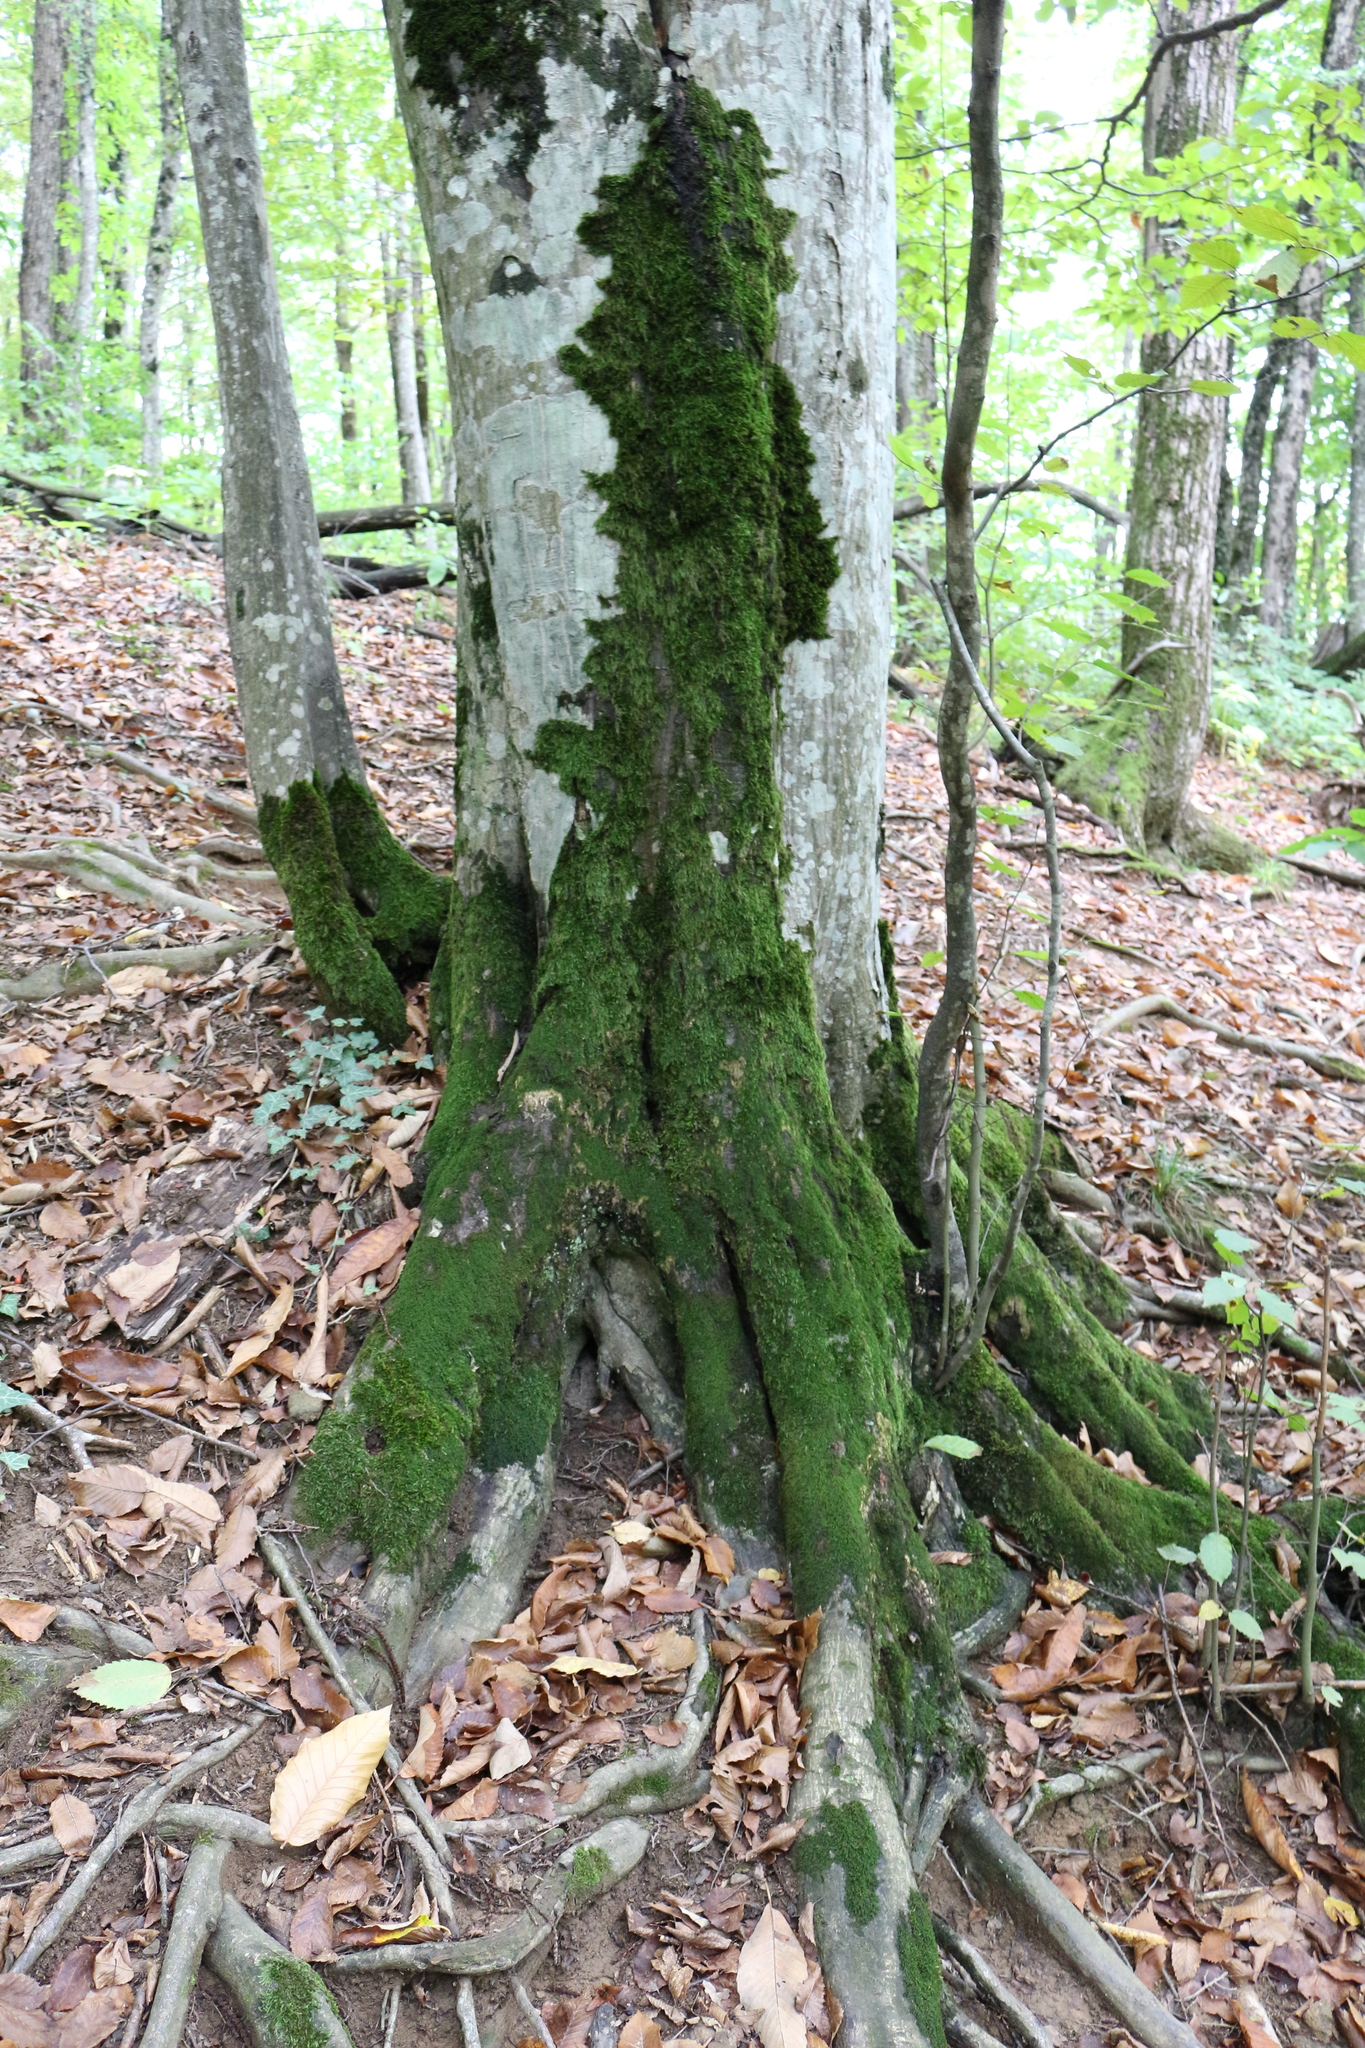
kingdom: Plantae
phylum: Tracheophyta
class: Magnoliopsida
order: Fagales
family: Fagaceae
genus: Fagus
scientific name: Fagus orientalis
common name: Oriental beech
